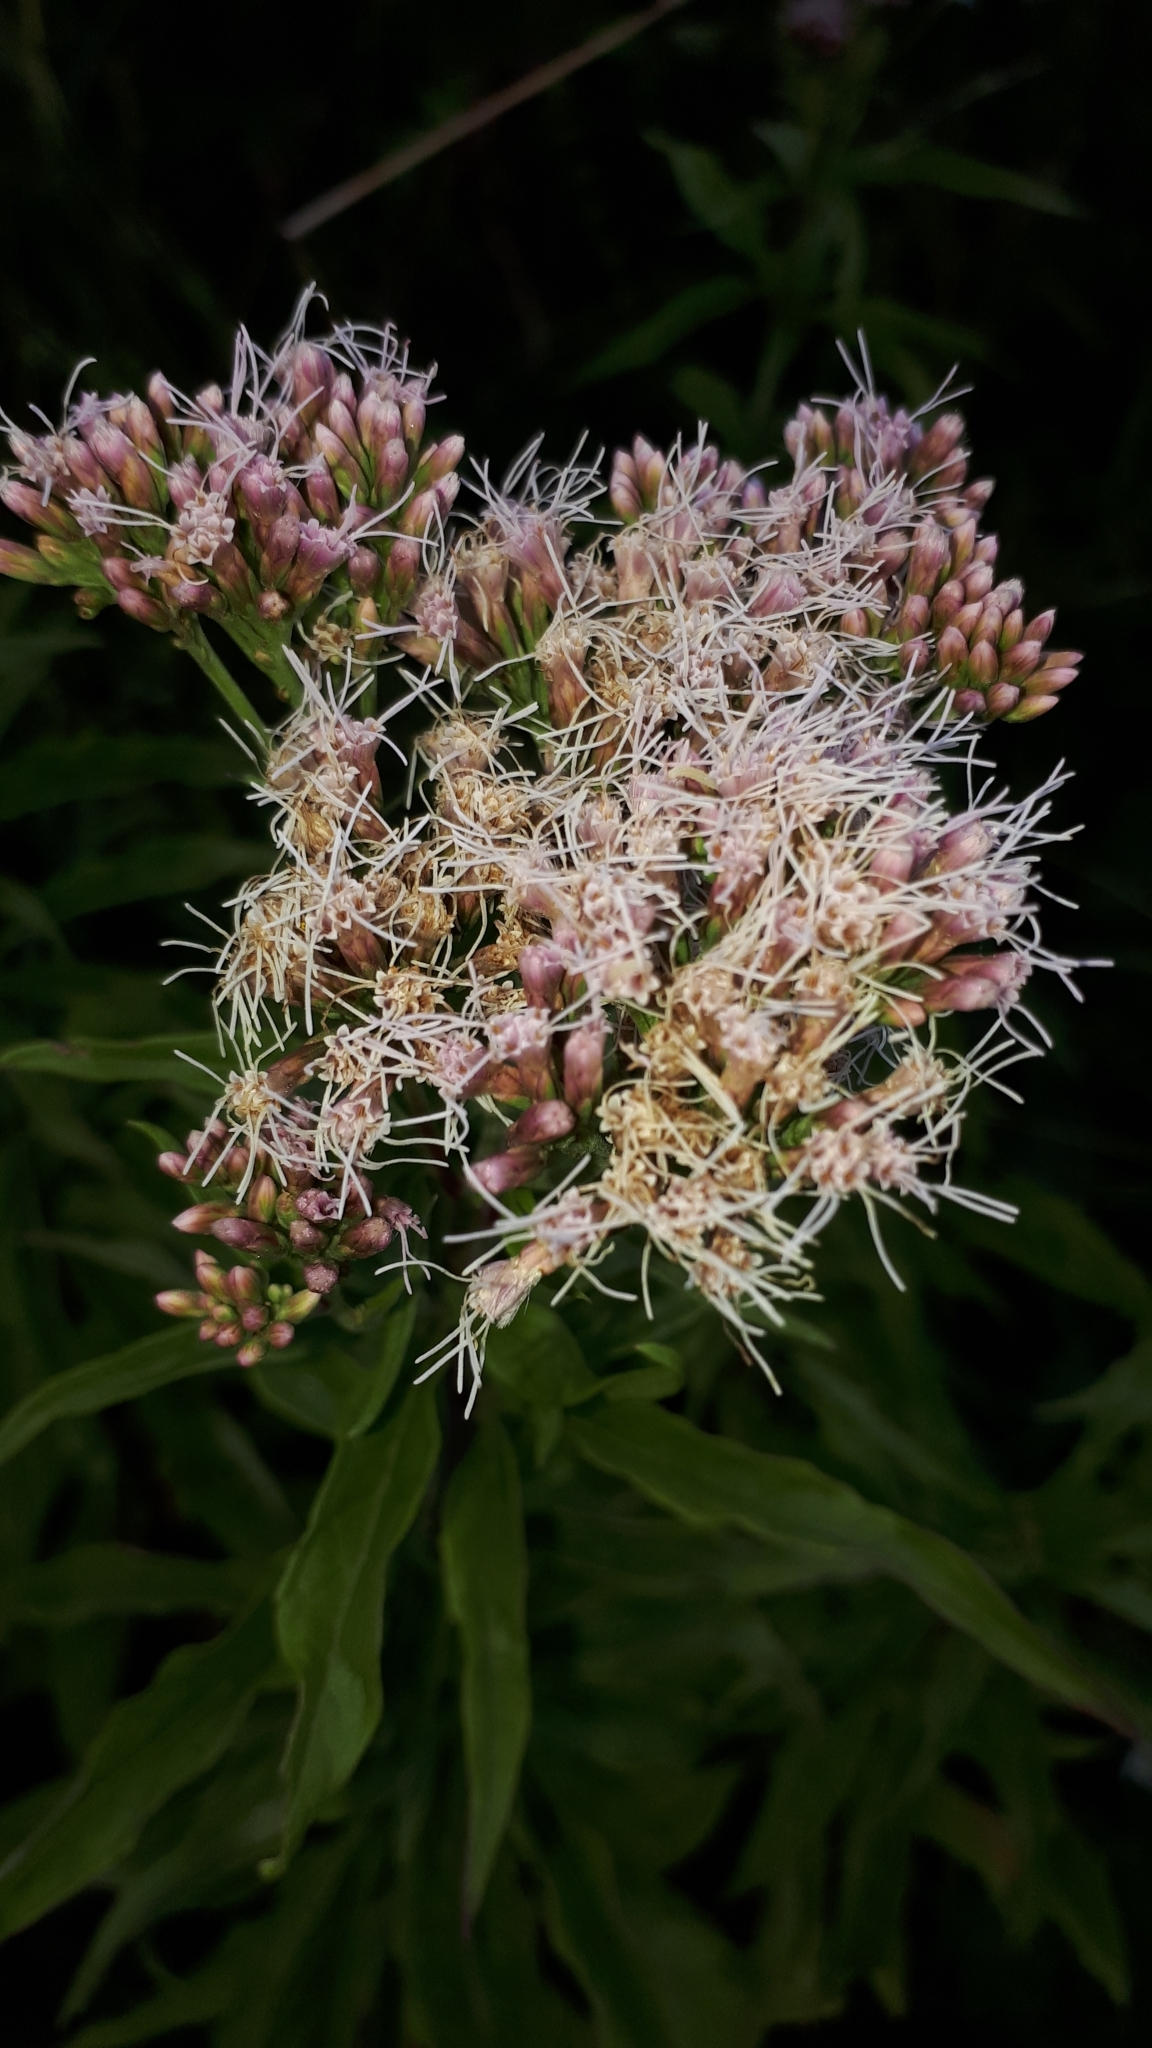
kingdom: Plantae
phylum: Tracheophyta
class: Magnoliopsida
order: Asterales
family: Asteraceae
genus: Eupatorium
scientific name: Eupatorium cannabinum
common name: Hemp-agrimony
